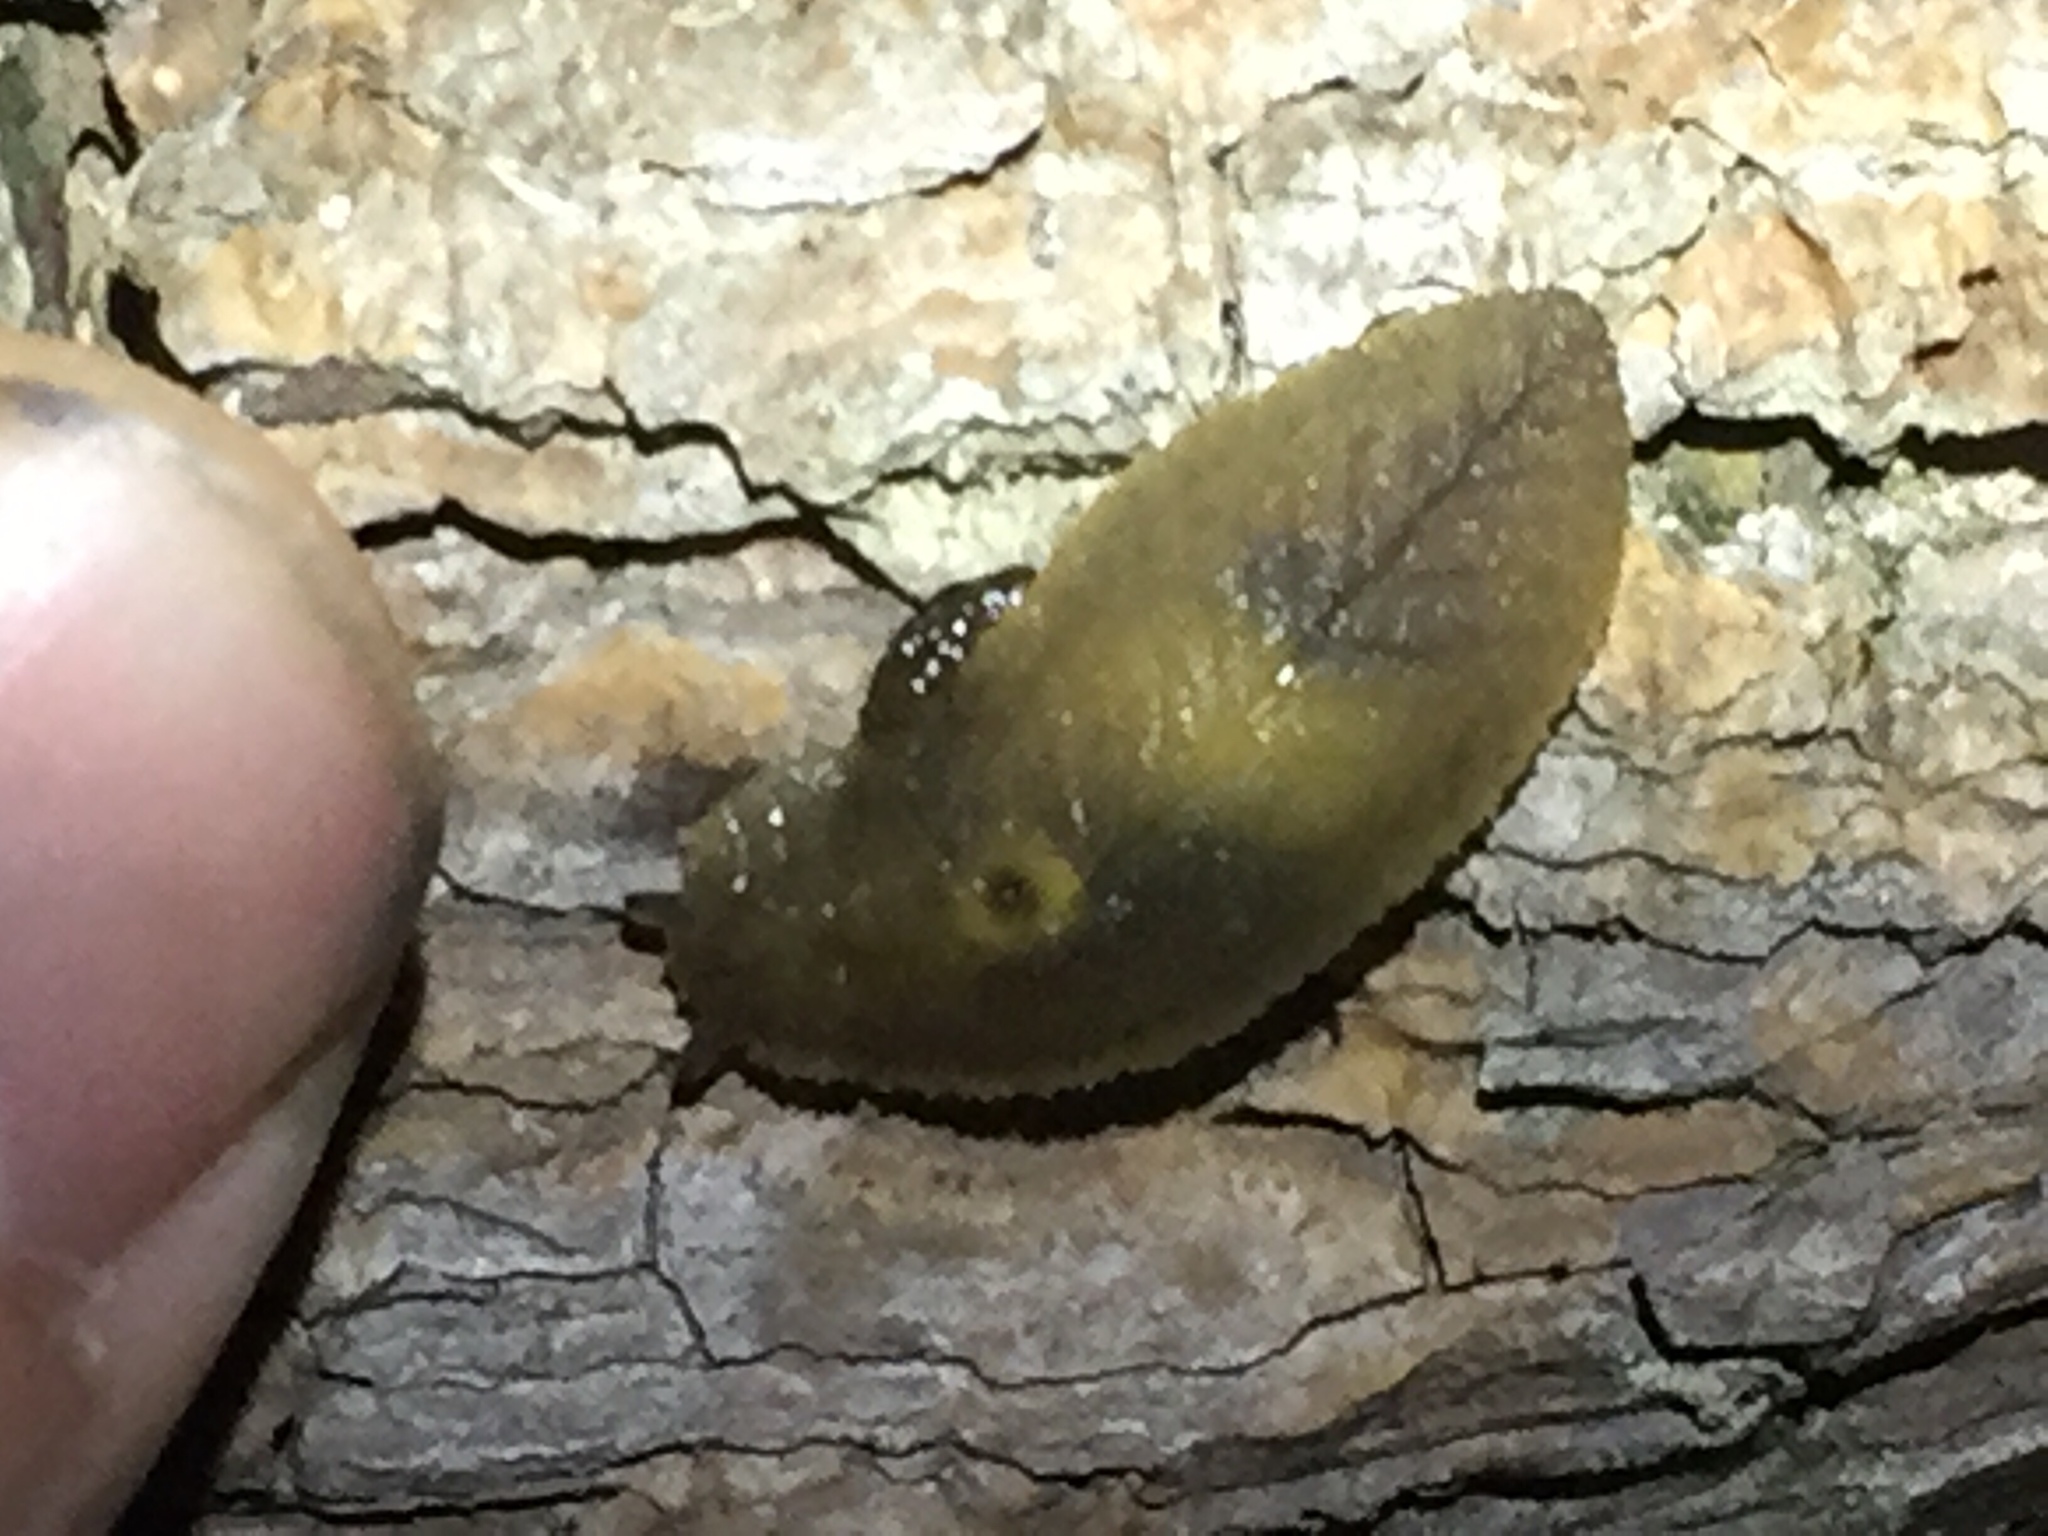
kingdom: Animalia
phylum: Mollusca
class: Gastropoda
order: Stylommatophora
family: Athoracophoridae
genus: Athoracophorus
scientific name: Athoracophorus papillatus
